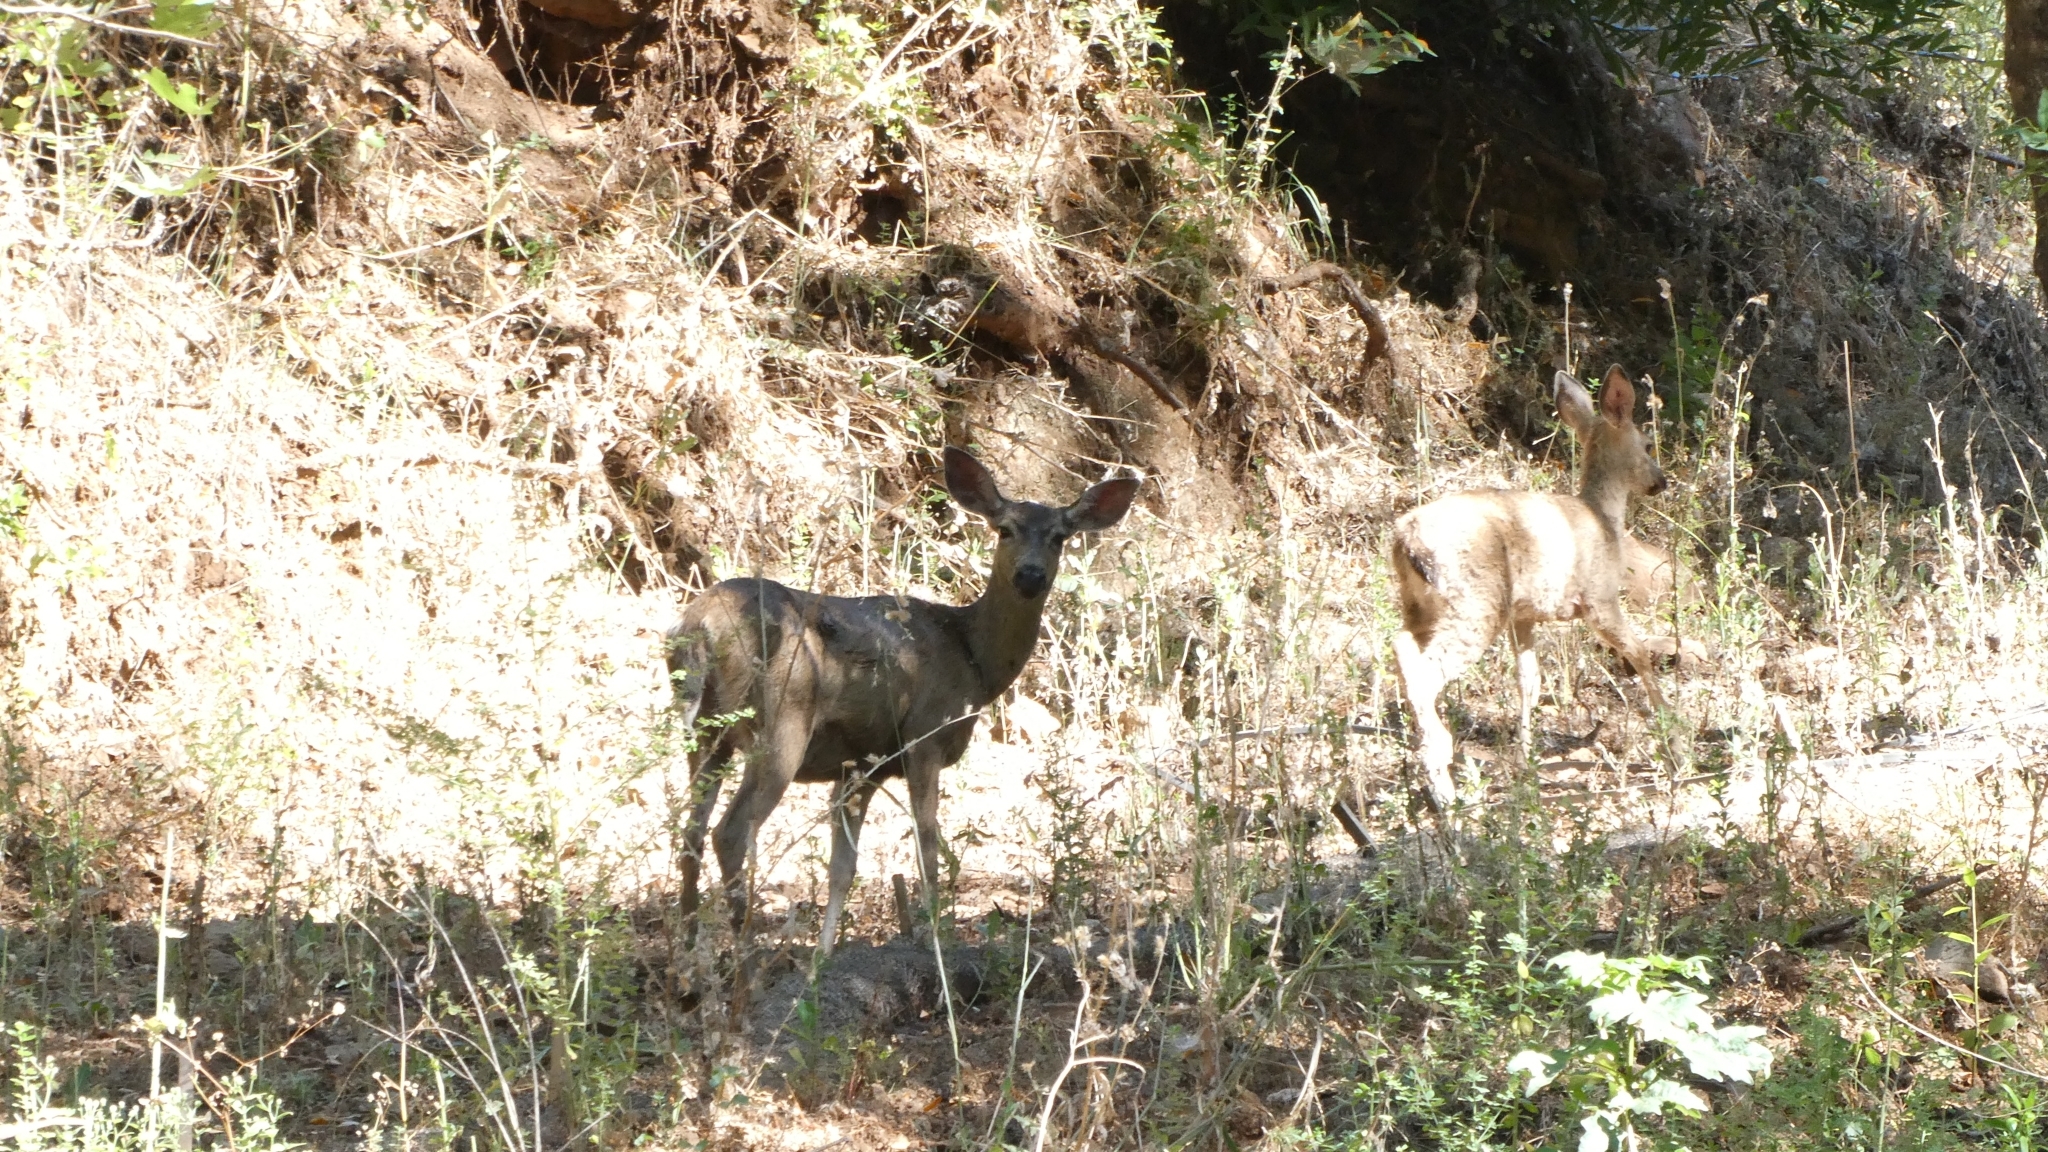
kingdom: Animalia
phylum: Chordata
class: Mammalia
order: Artiodactyla
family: Cervidae
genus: Odocoileus
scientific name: Odocoileus hemionus
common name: Mule deer
